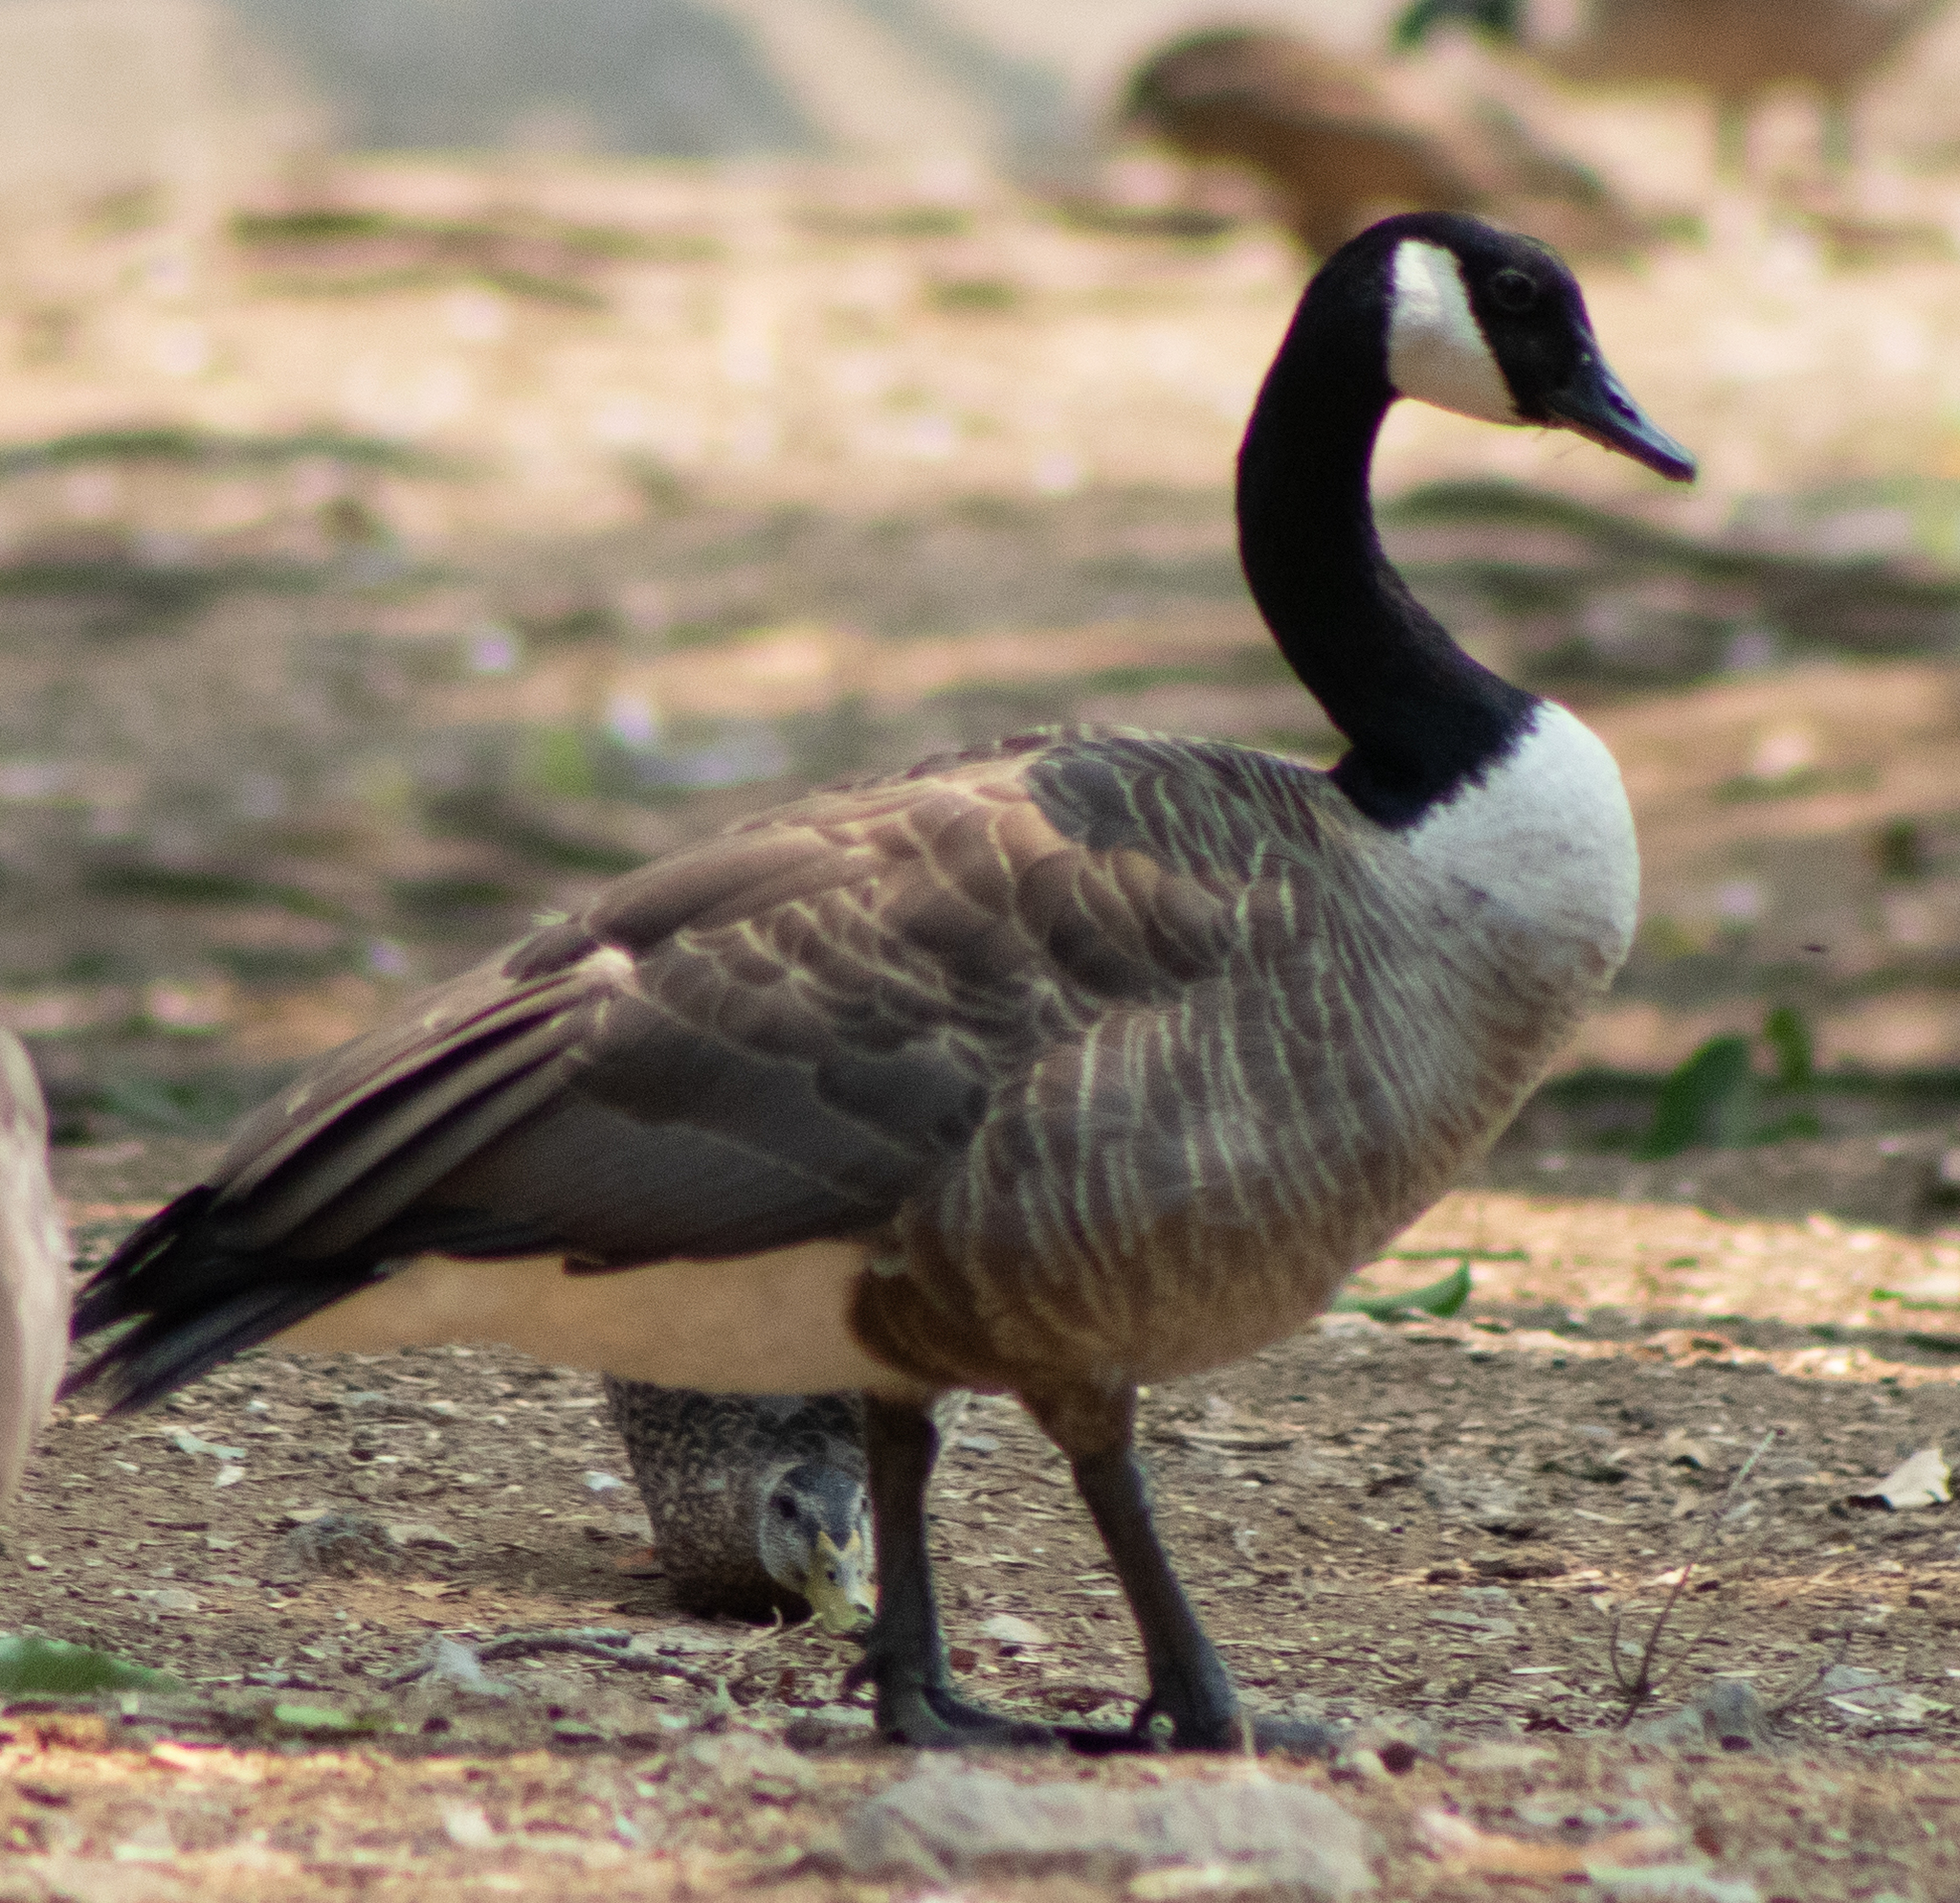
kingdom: Animalia
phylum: Chordata
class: Aves
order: Anseriformes
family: Anatidae
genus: Branta
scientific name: Branta canadensis
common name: Canada goose
